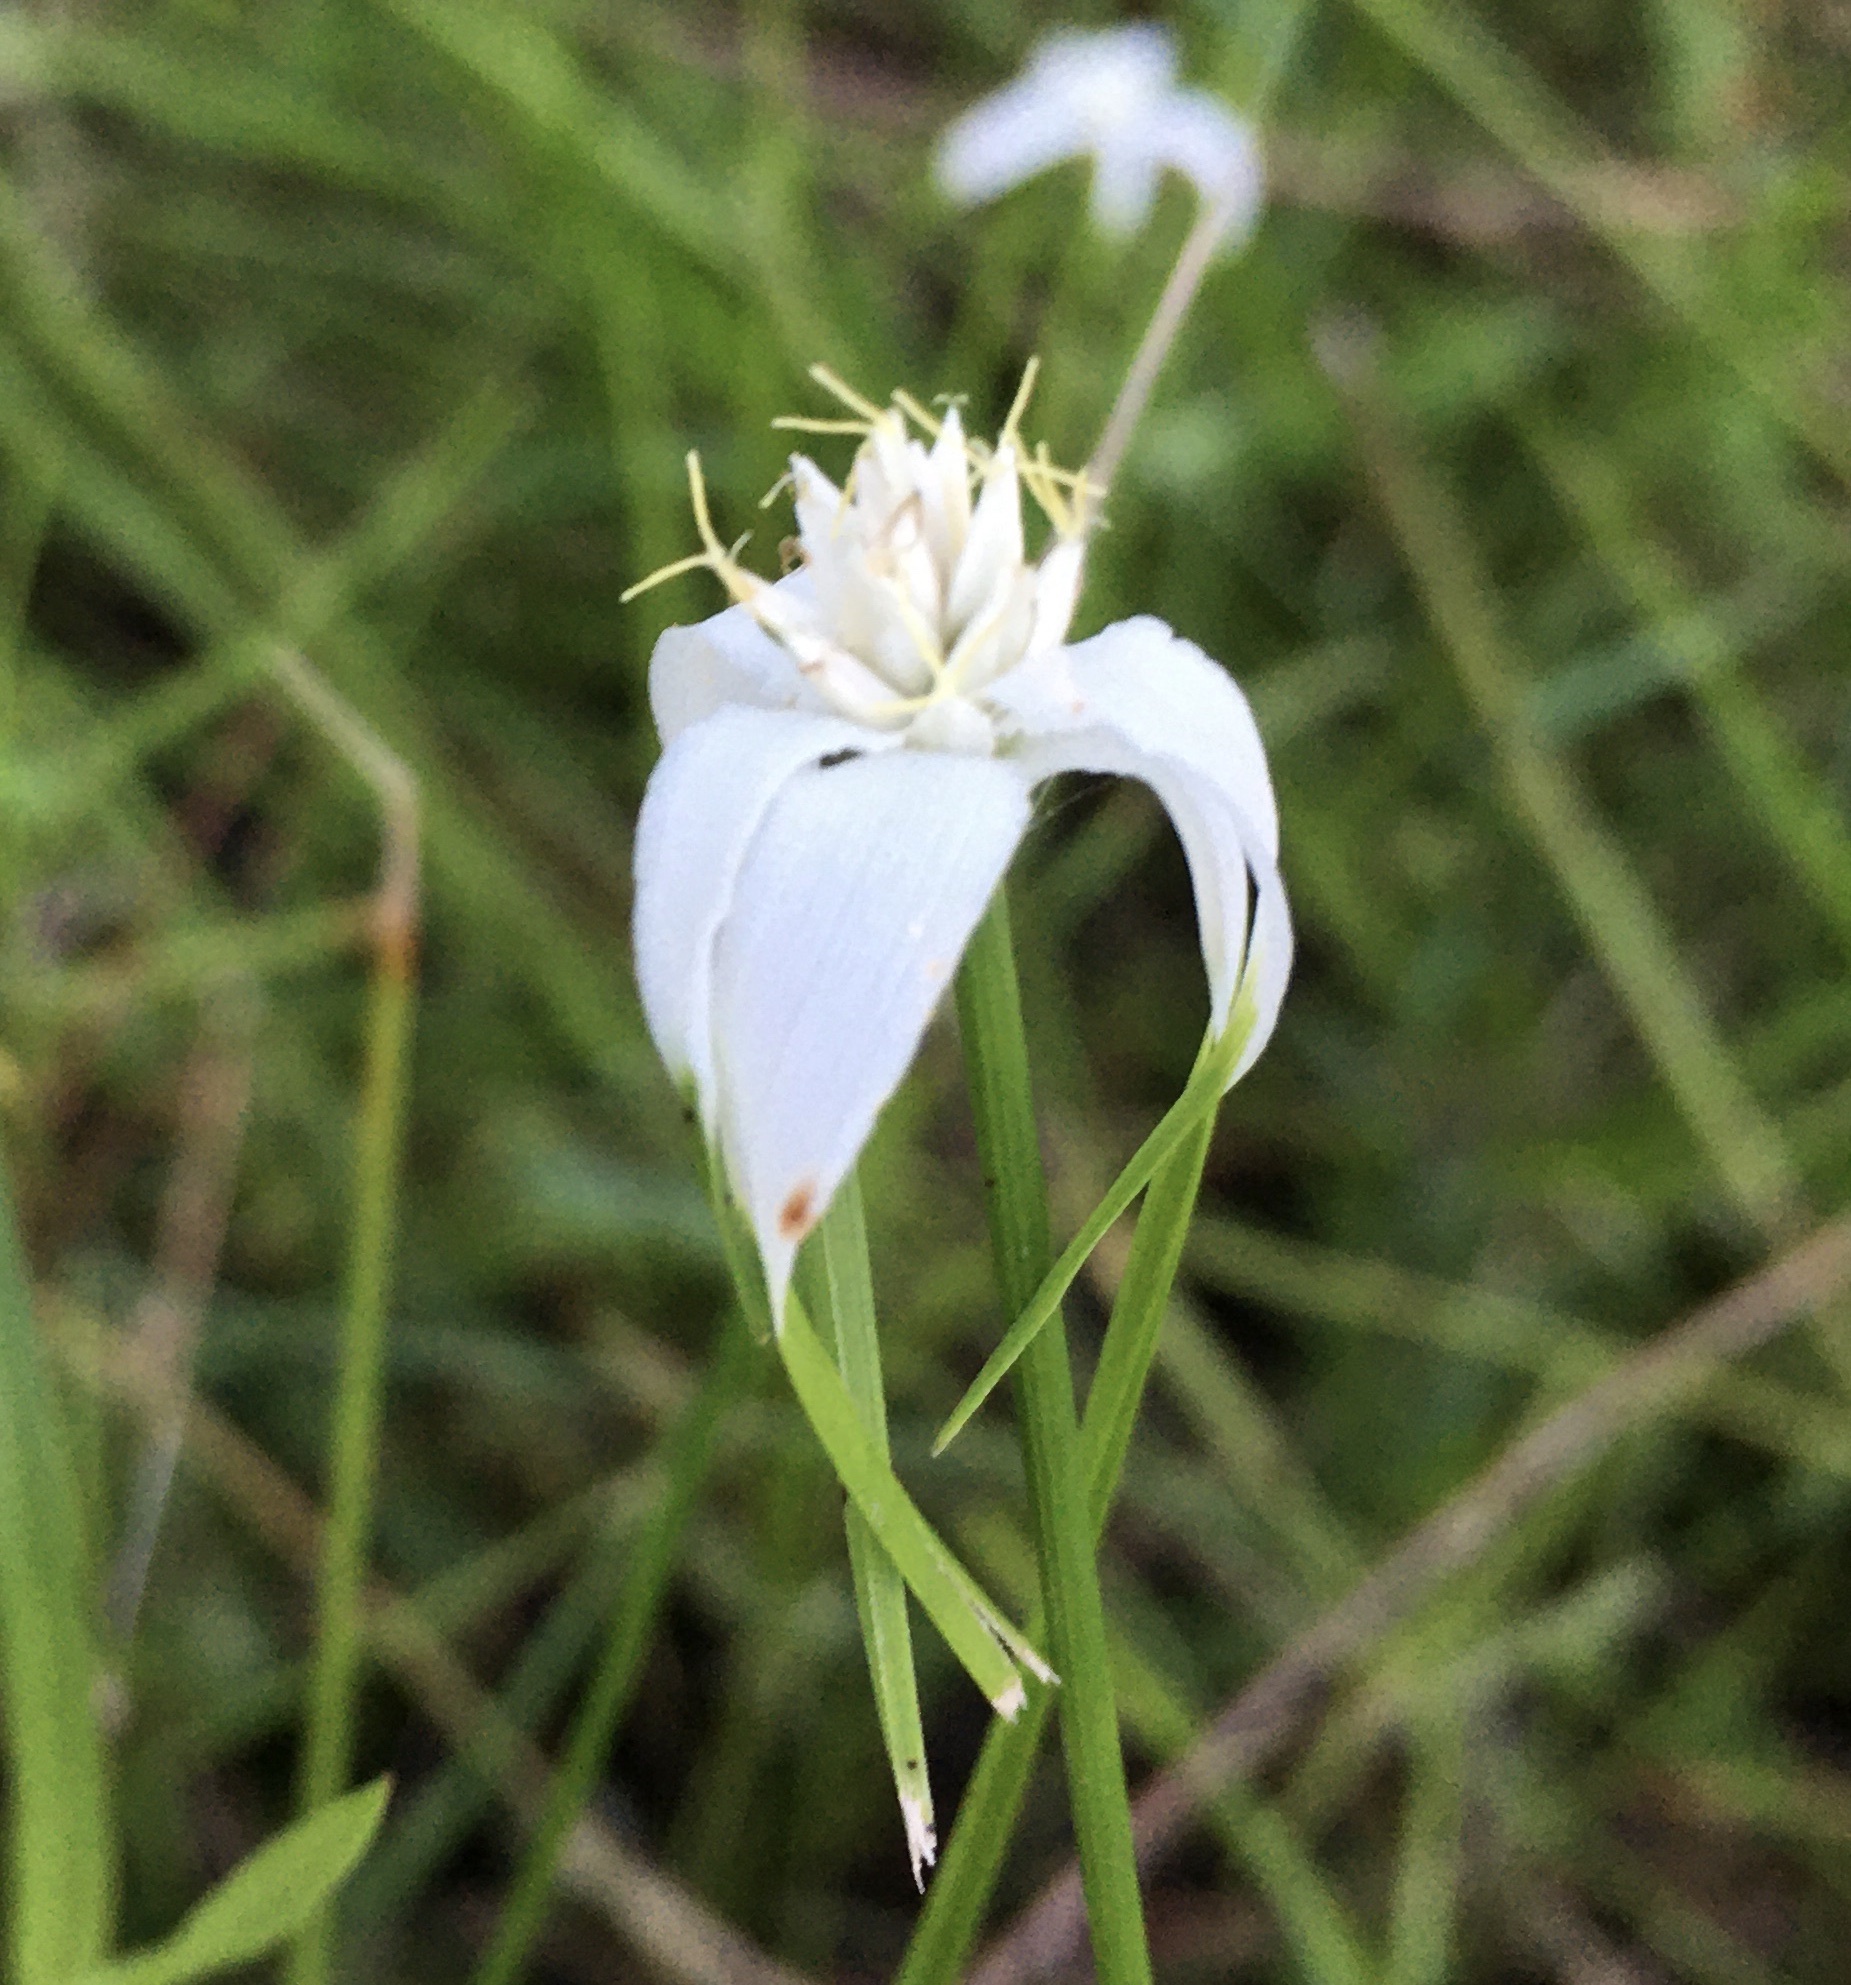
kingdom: Plantae
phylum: Tracheophyta
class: Liliopsida
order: Poales
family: Cyperaceae
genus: Rhynchospora
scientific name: Rhynchospora colorata
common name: Star sedge
